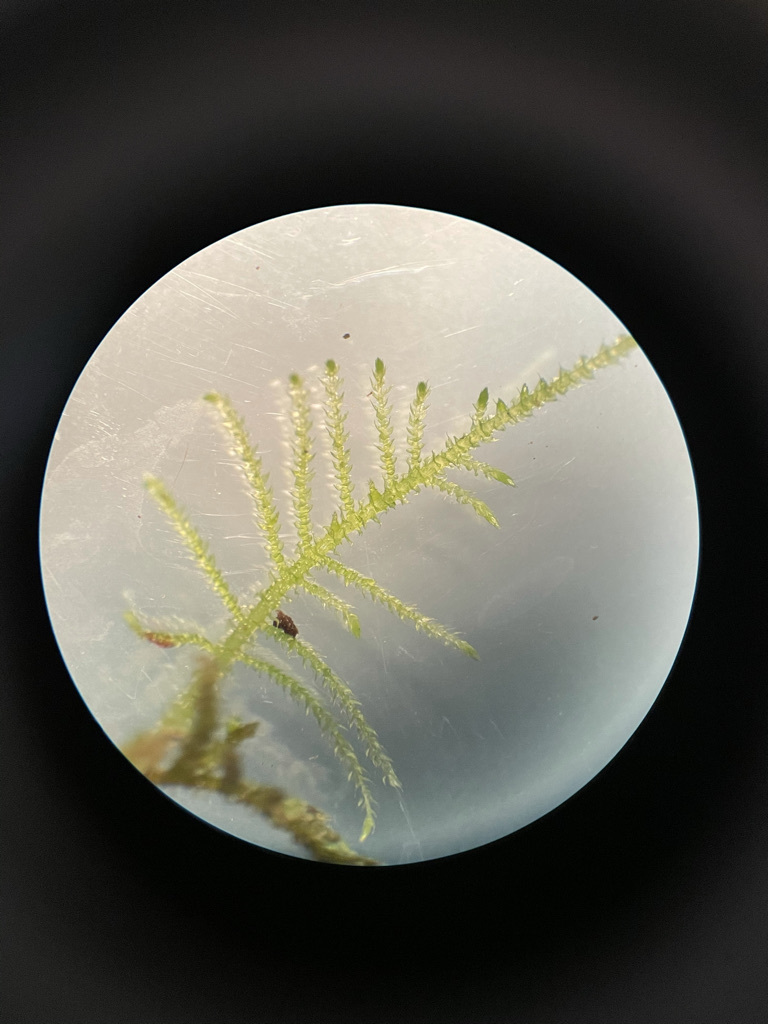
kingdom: Plantae
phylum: Bryophyta
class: Bryopsida
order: Hypnales
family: Brachytheciaceae
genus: Kindbergia
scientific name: Kindbergia praelonga
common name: Slender beaked moss
